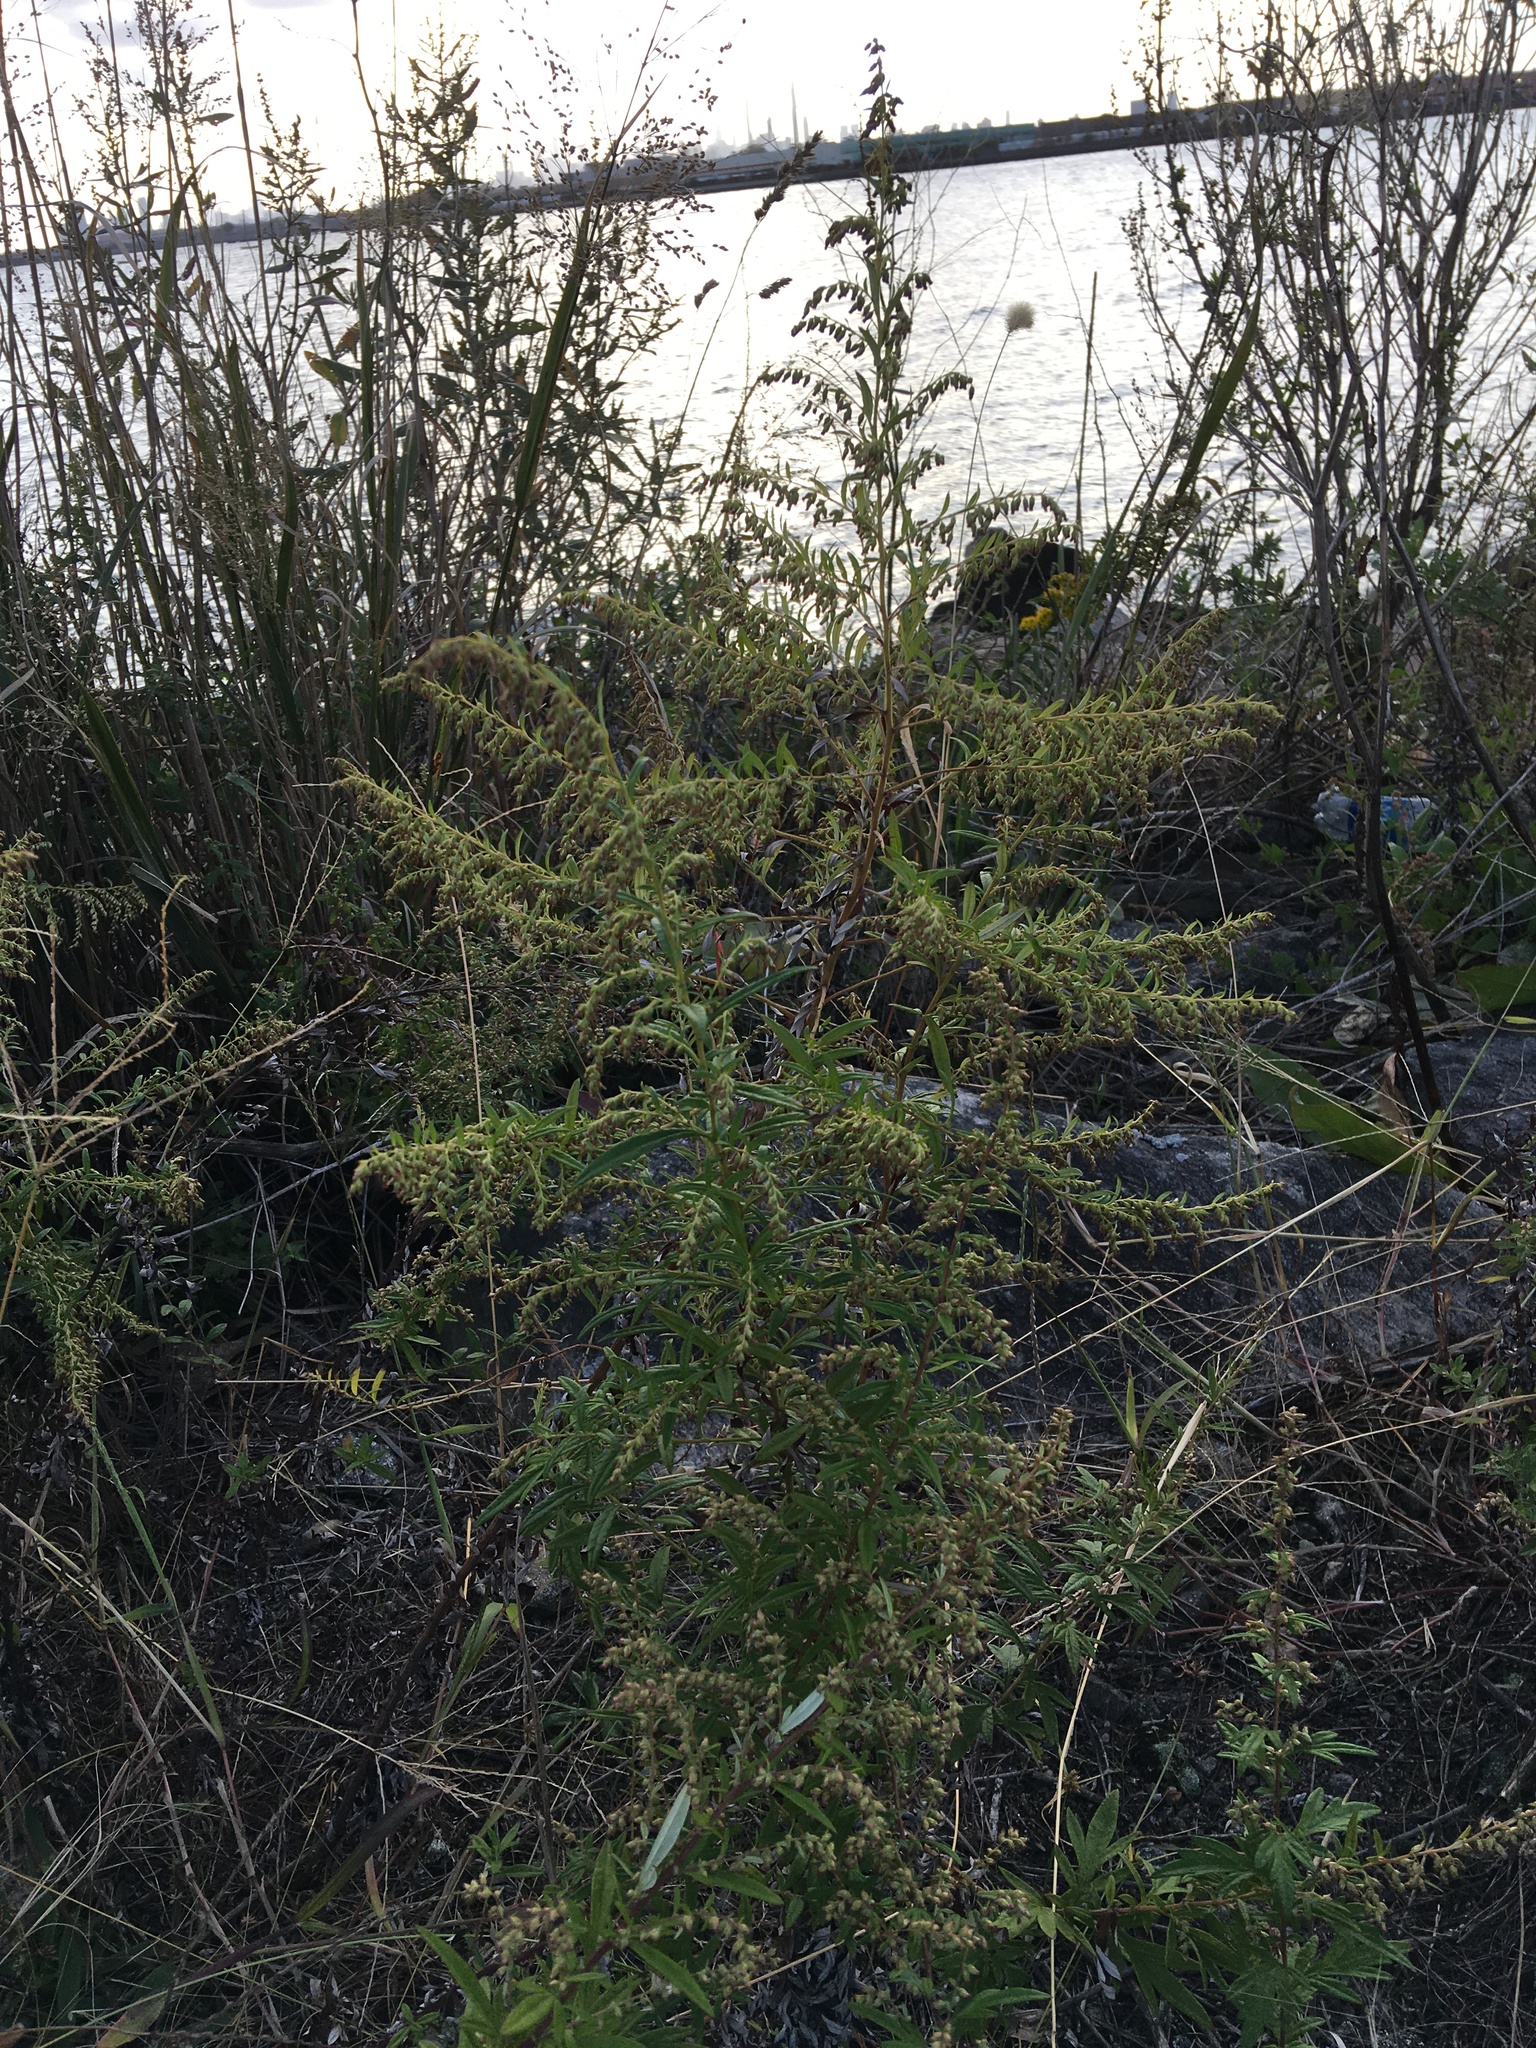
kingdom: Plantae
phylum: Tracheophyta
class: Magnoliopsida
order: Asterales
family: Asteraceae
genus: Artemisia
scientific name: Artemisia vulgaris
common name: Mugwort
